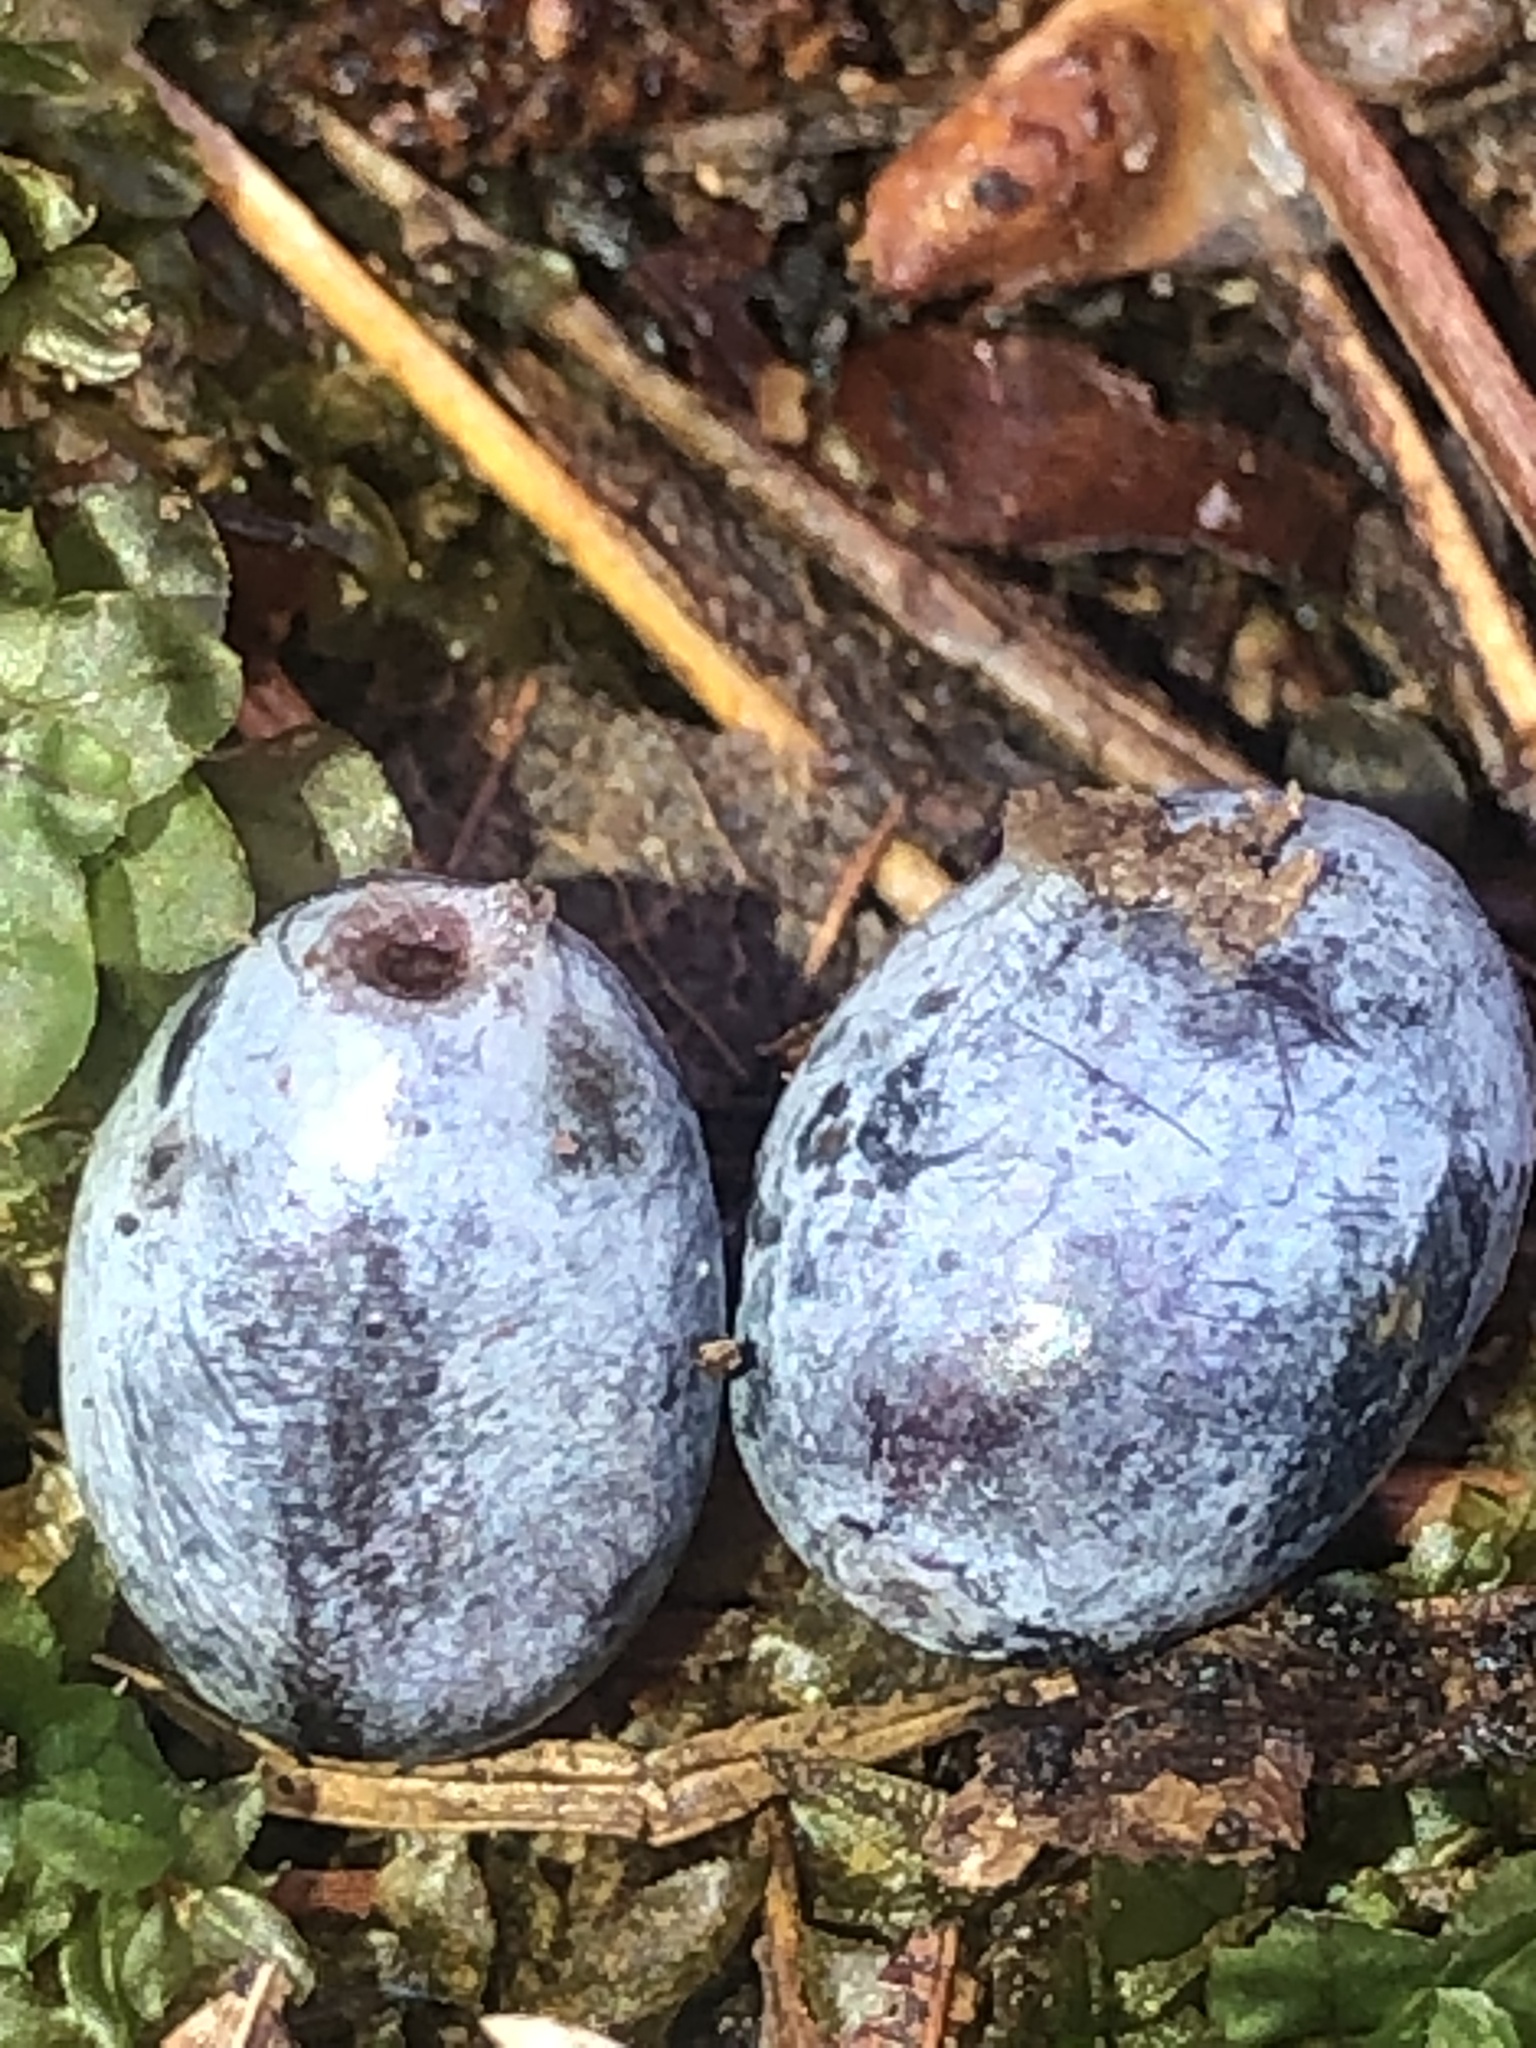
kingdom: Plantae
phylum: Tracheophyta
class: Magnoliopsida
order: Cornales
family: Nyssaceae
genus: Nyssa
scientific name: Nyssa sylvatica
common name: Black tupelo
